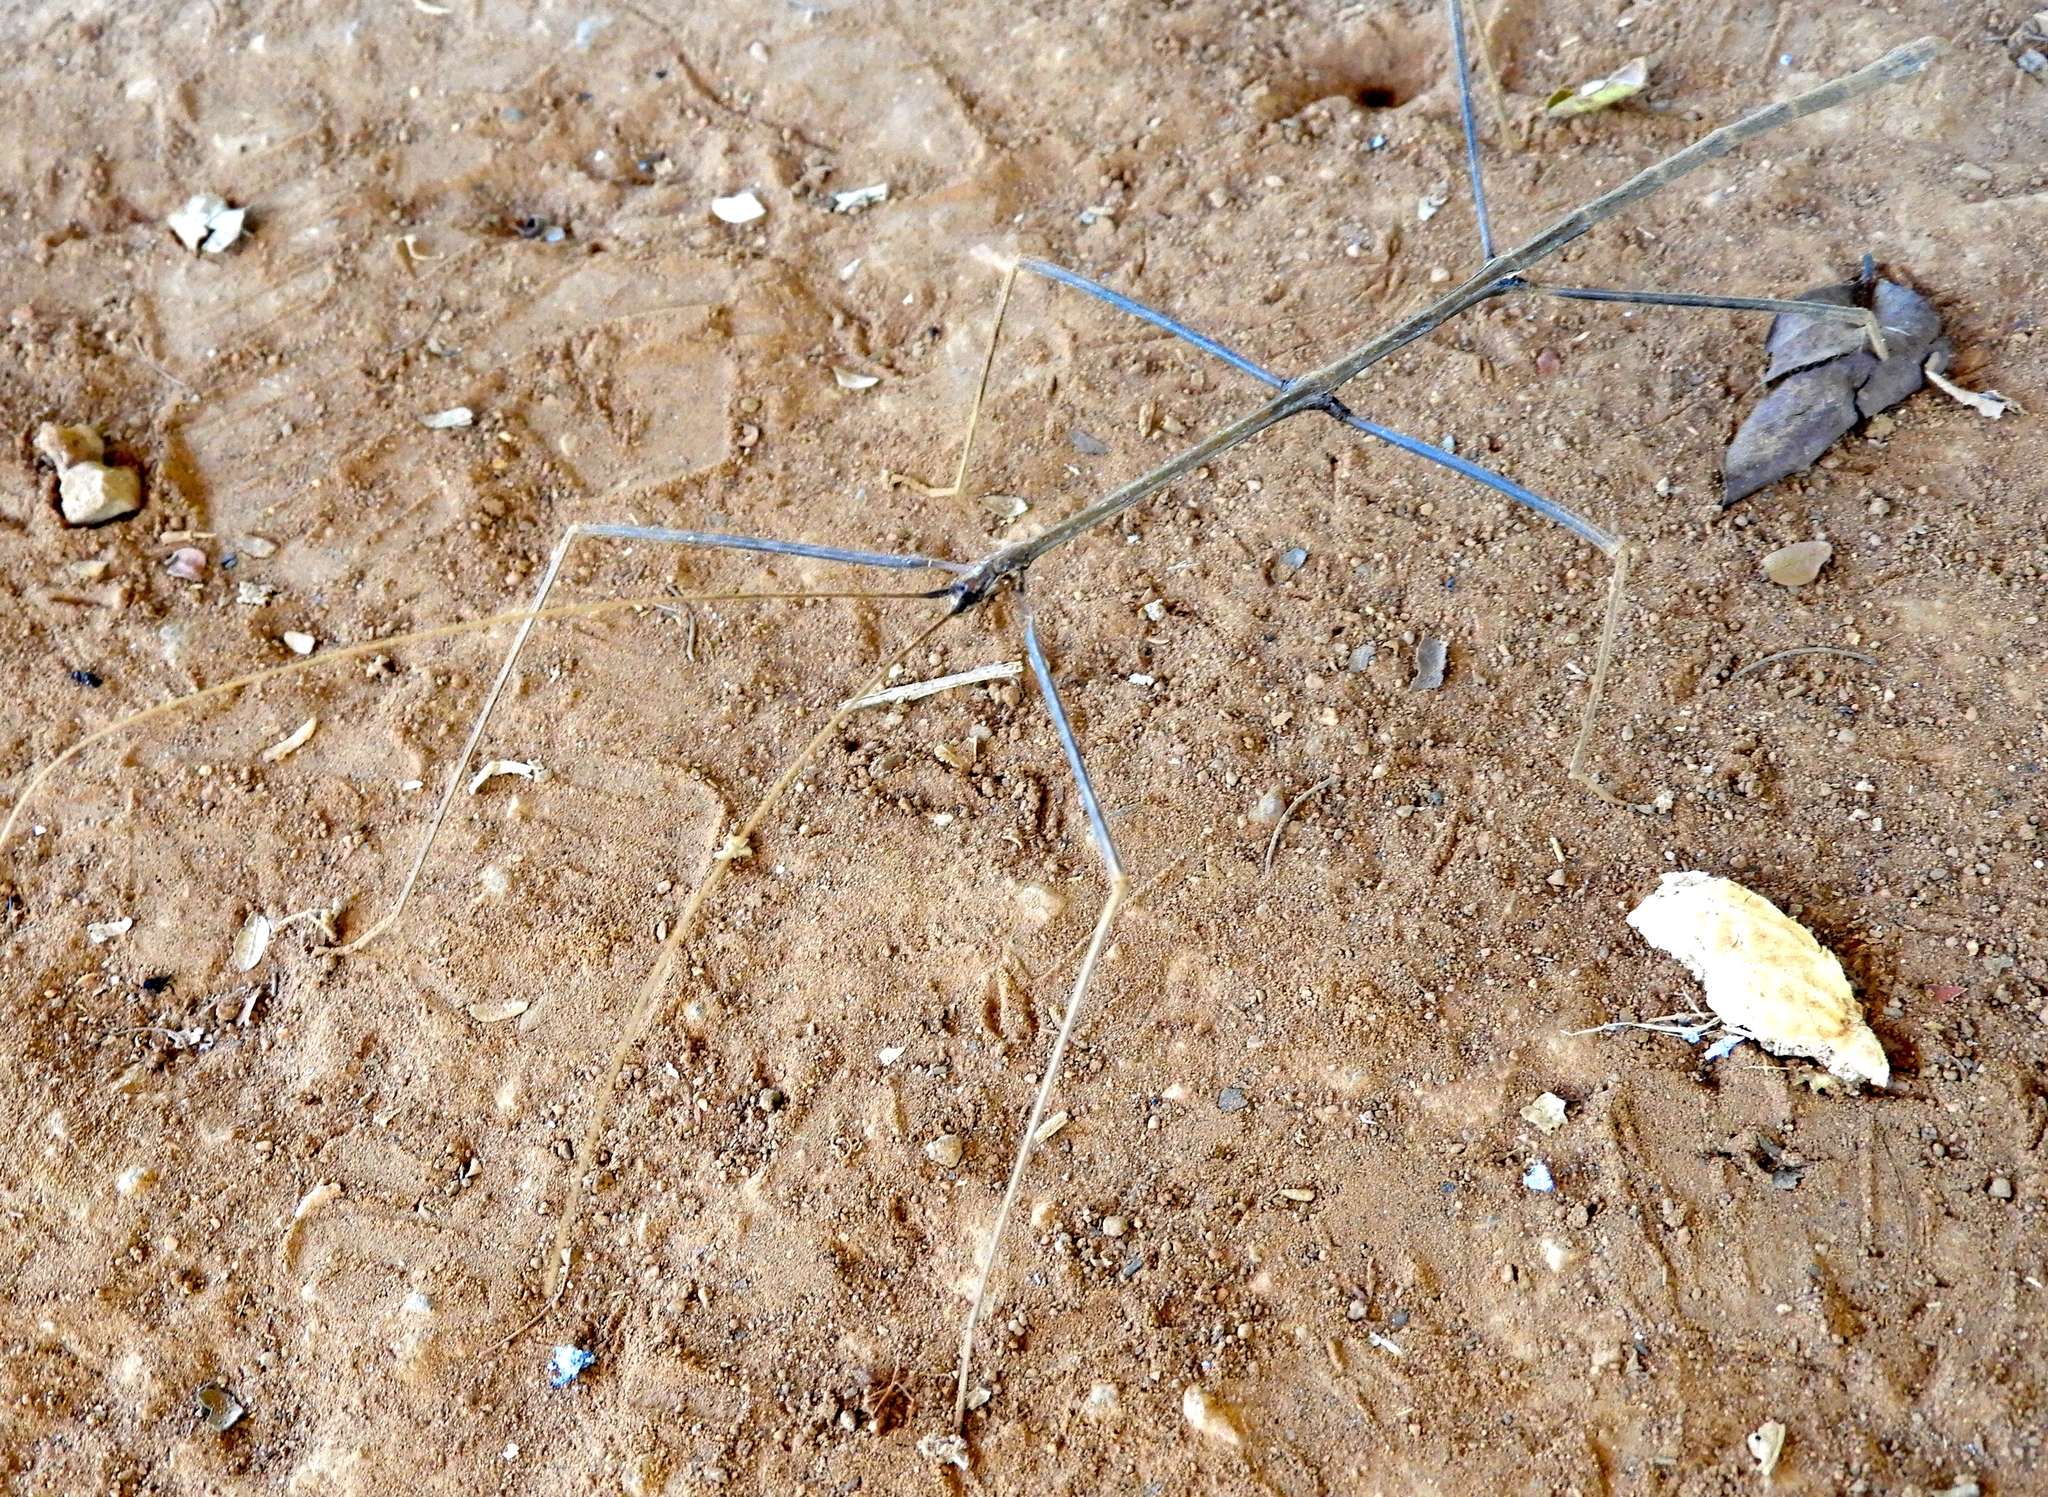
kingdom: Animalia
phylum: Arthropoda
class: Insecta
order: Phasmida
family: Diapheromeridae
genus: Phanocles
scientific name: Phanocles
